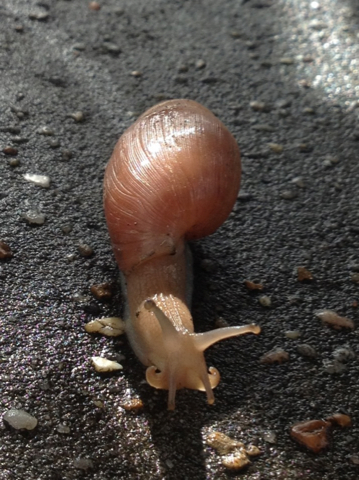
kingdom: Animalia
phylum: Mollusca
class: Gastropoda
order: Stylommatophora
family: Spiraxidae
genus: Euglandina
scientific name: Euglandina rosea
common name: Rosy wolfsnail
